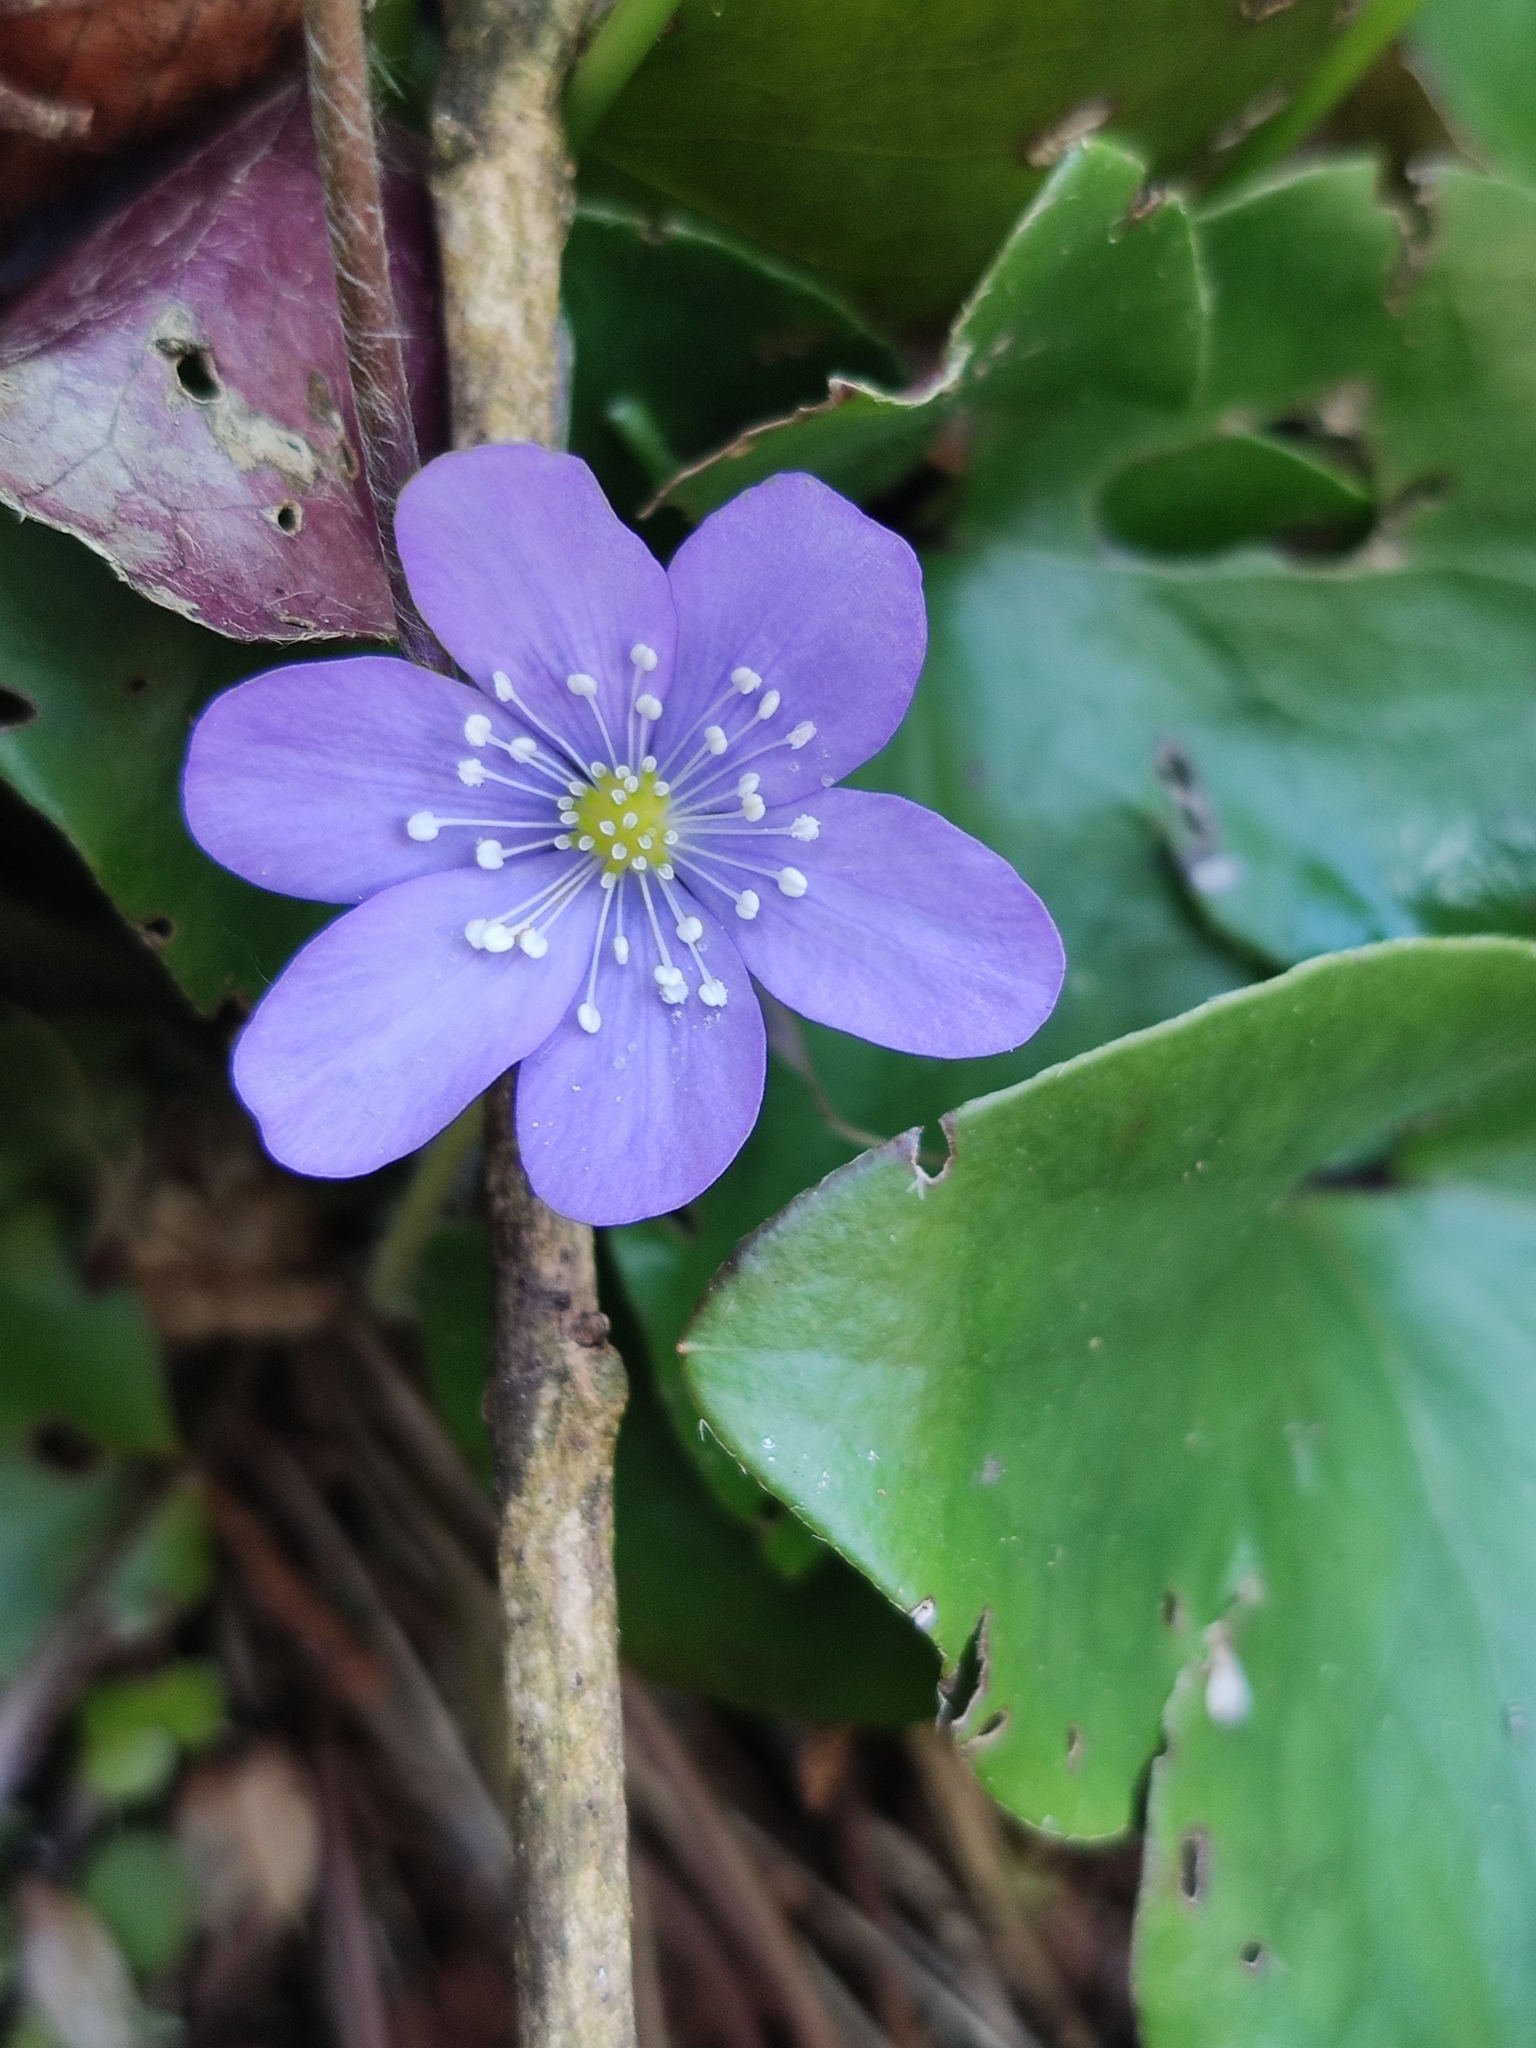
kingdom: Plantae
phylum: Tracheophyta
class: Magnoliopsida
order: Ranunculales
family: Ranunculaceae
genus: Hepatica
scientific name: Hepatica nobilis
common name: Liverleaf
